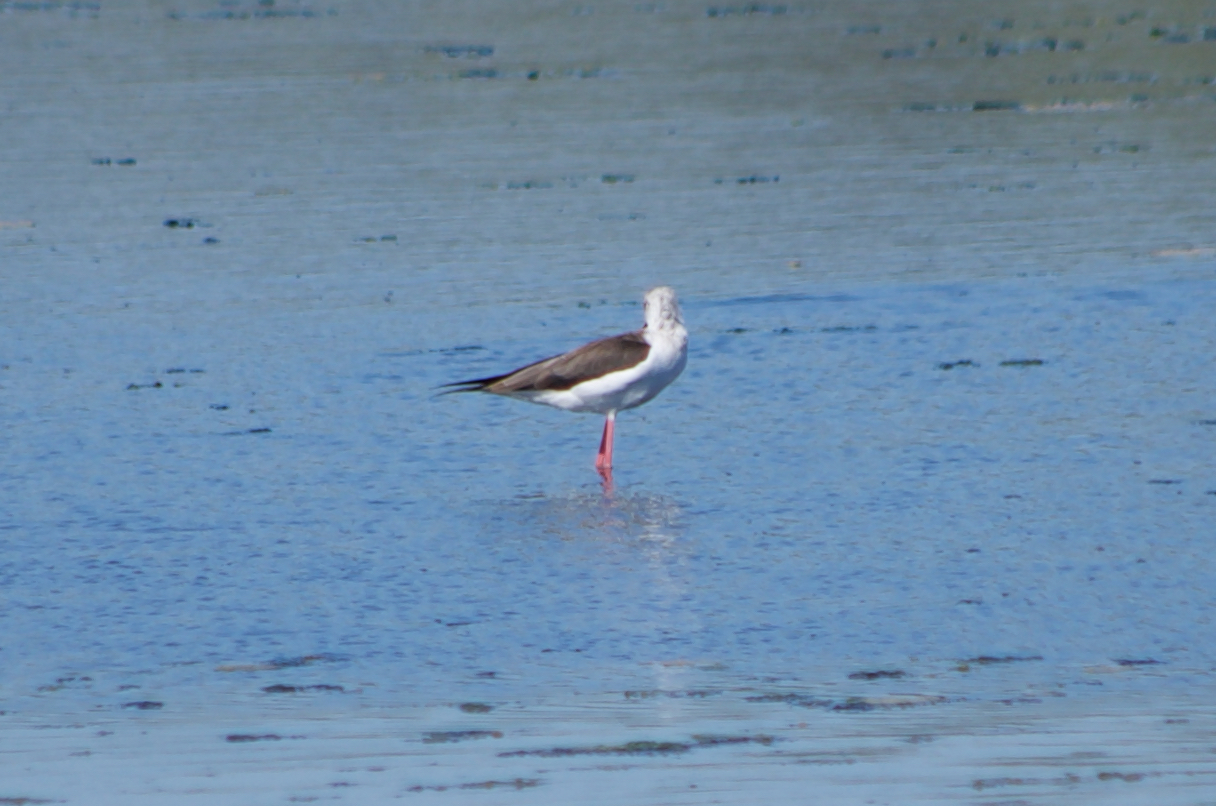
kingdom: Animalia
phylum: Chordata
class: Aves
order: Charadriiformes
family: Recurvirostridae
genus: Himantopus
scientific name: Himantopus himantopus
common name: Black-winged stilt
